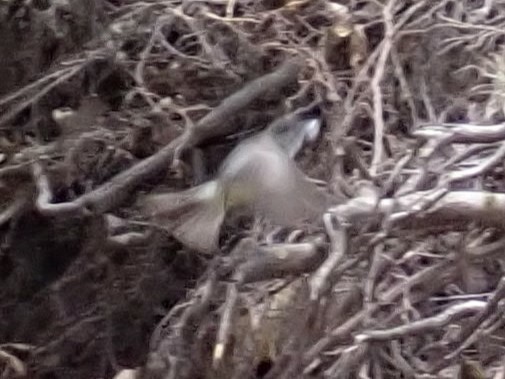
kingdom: Animalia
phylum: Chordata
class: Aves
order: Passeriformes
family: Tyrannidae
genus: Sayornis
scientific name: Sayornis phoebe
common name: Eastern phoebe
